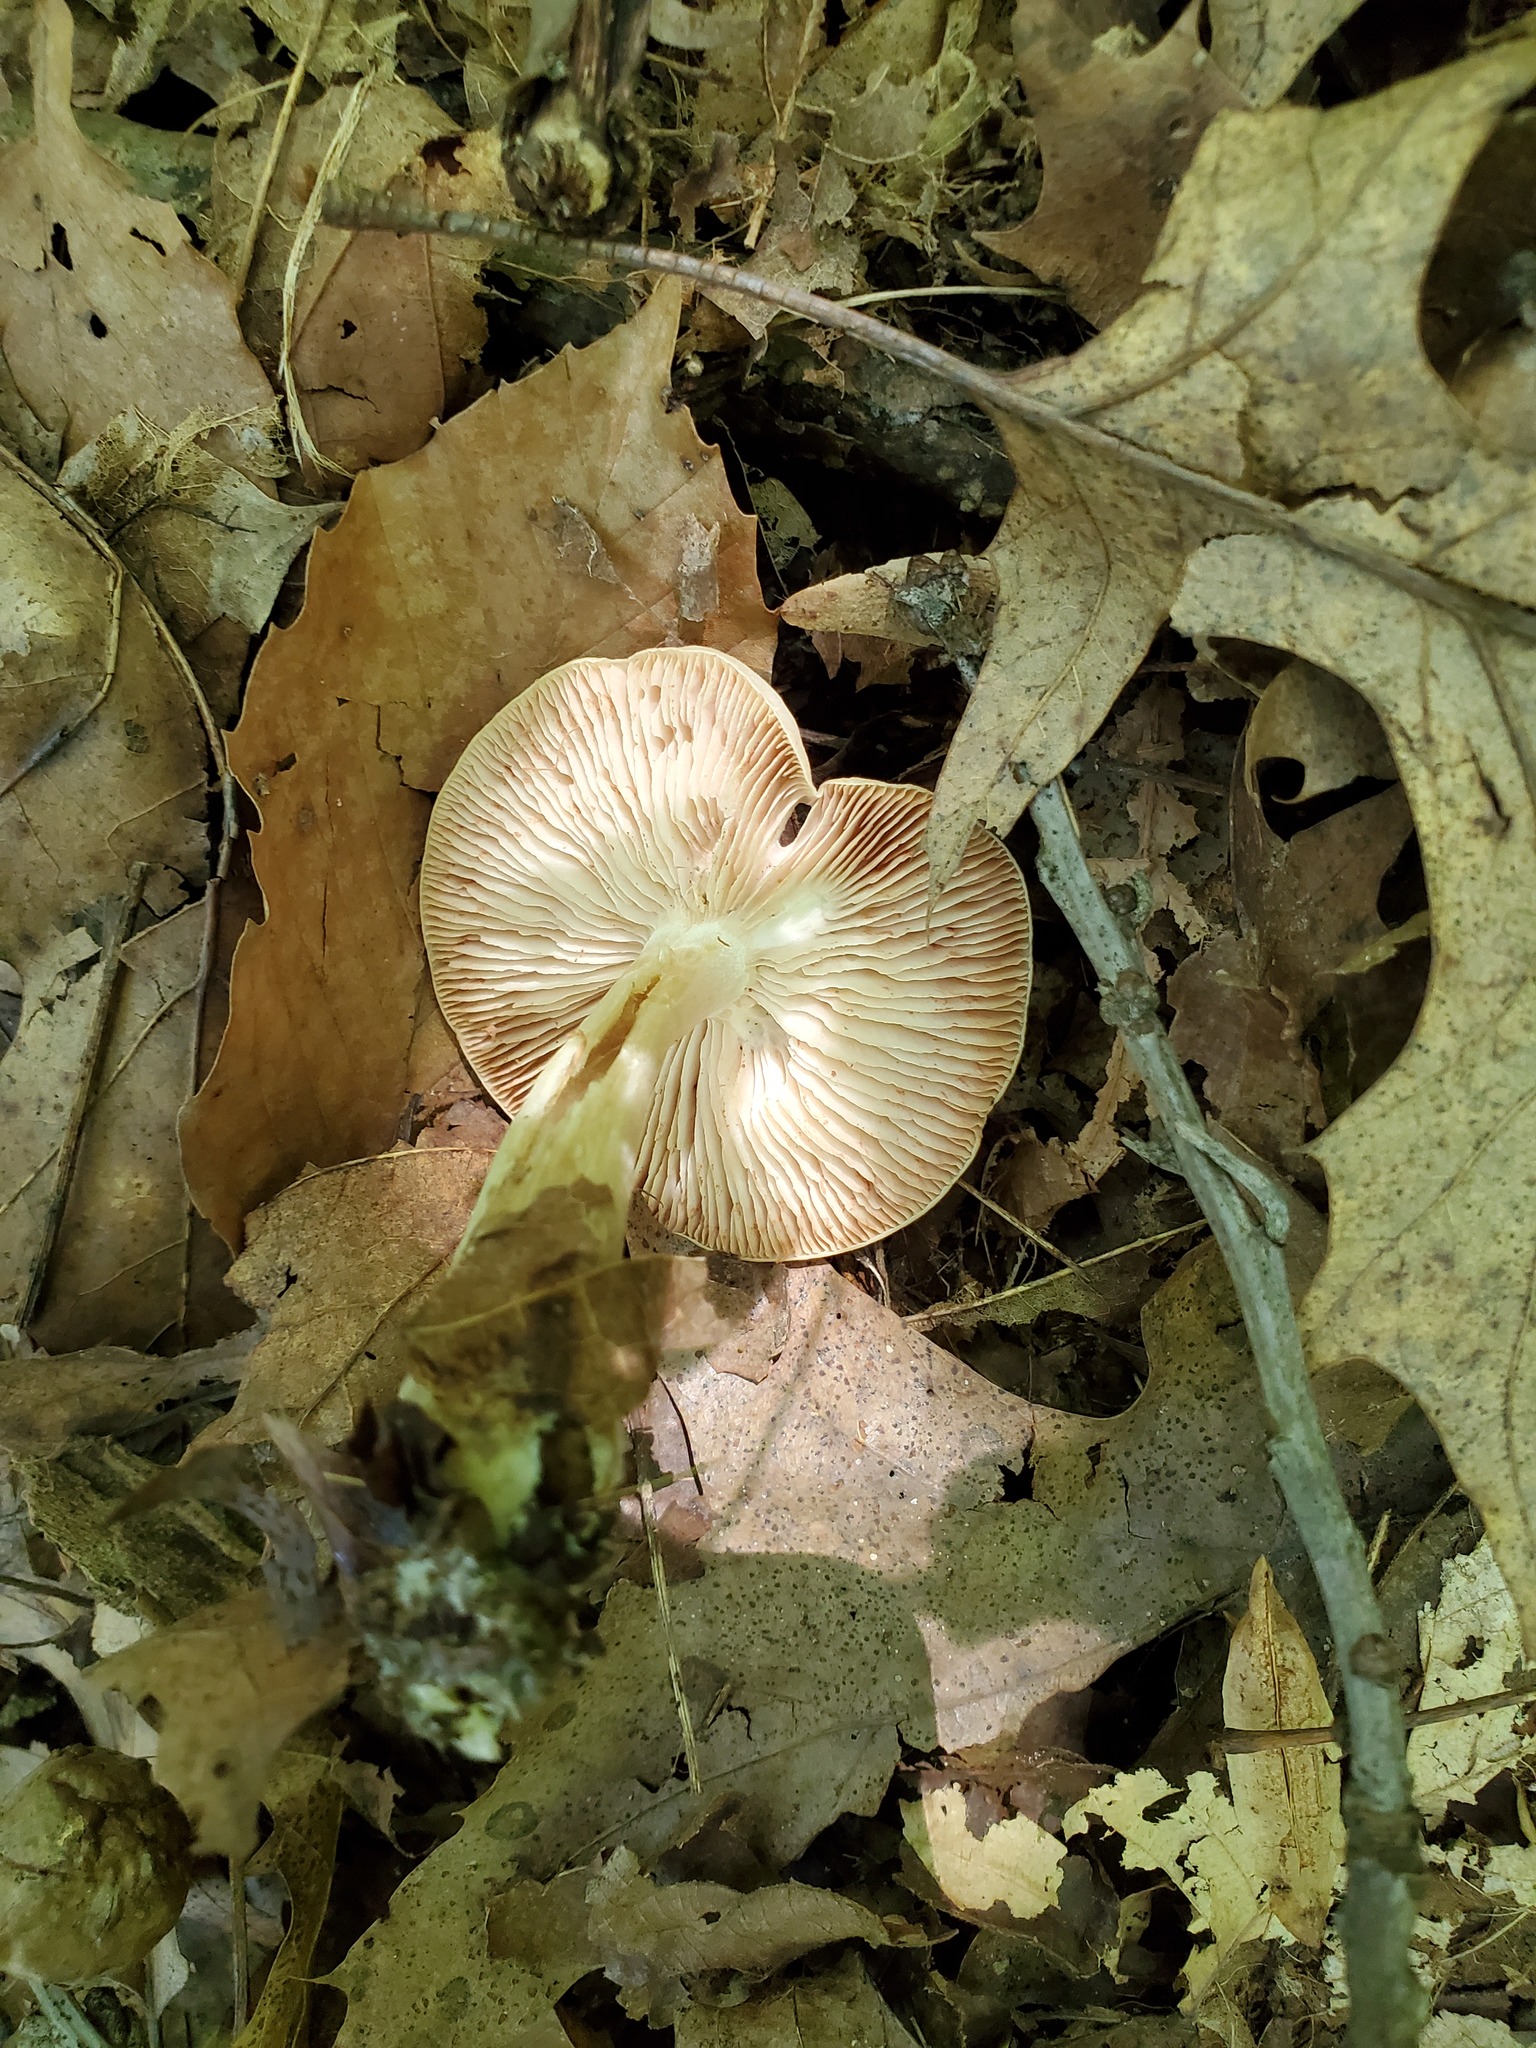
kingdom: Fungi
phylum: Basidiomycota
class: Agaricomycetes
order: Agaricales
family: Entolomataceae
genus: Entoloma
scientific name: Entoloma flavifolium
